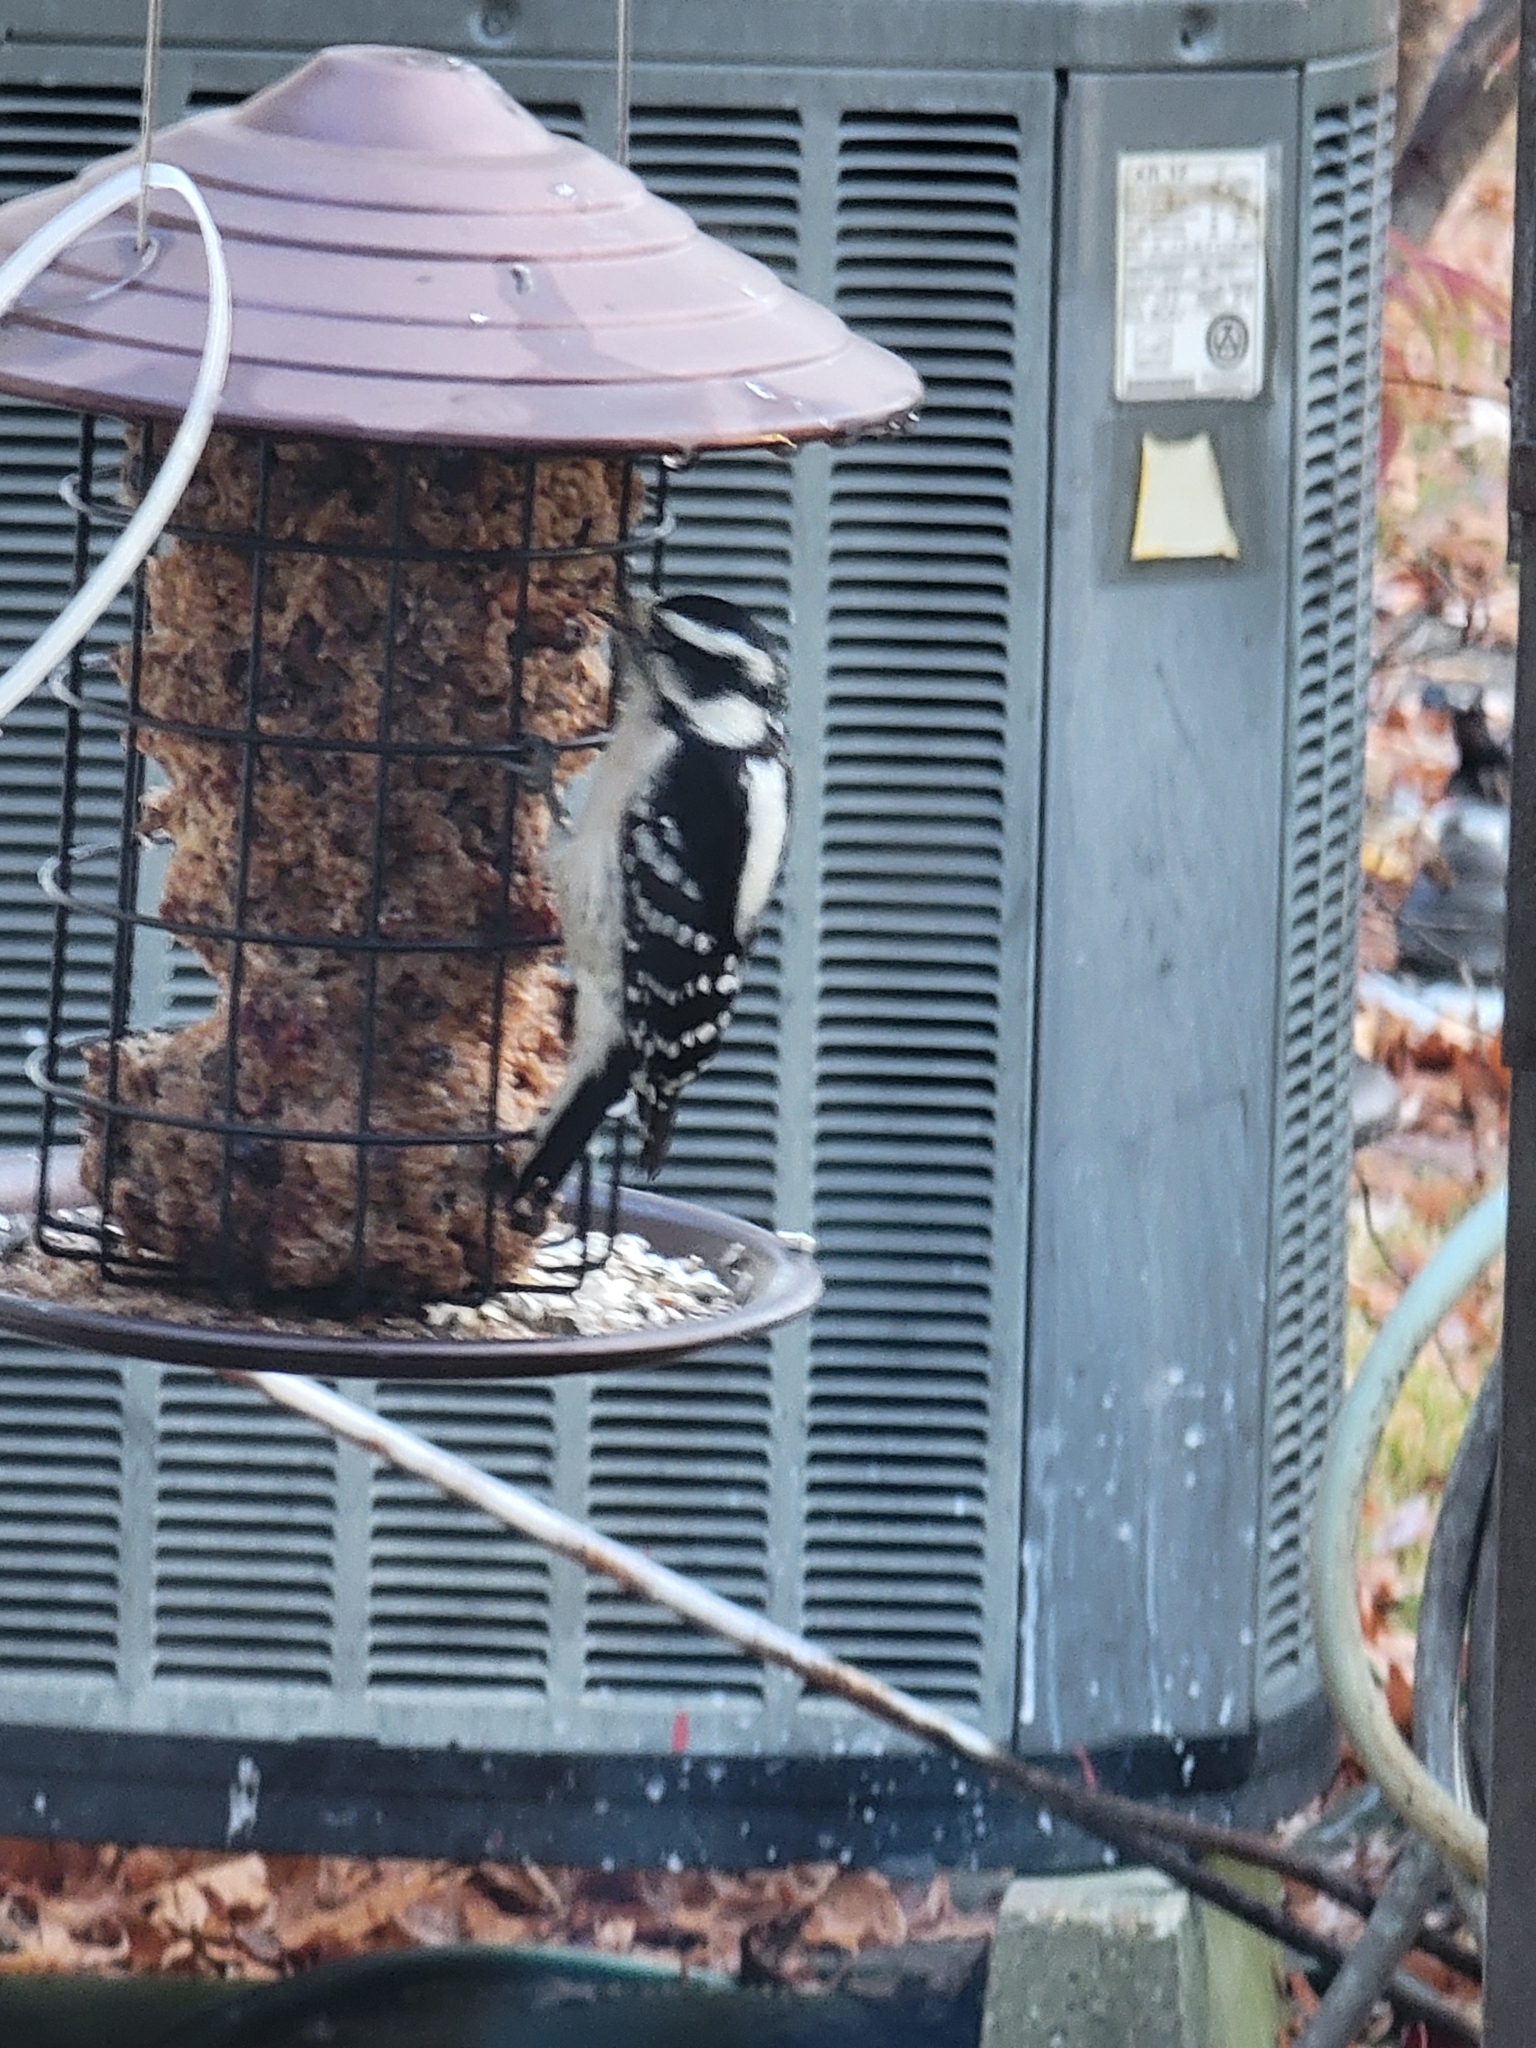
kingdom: Animalia
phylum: Chordata
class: Aves
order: Piciformes
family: Picidae
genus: Dryobates
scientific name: Dryobates pubescens
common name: Downy woodpecker
